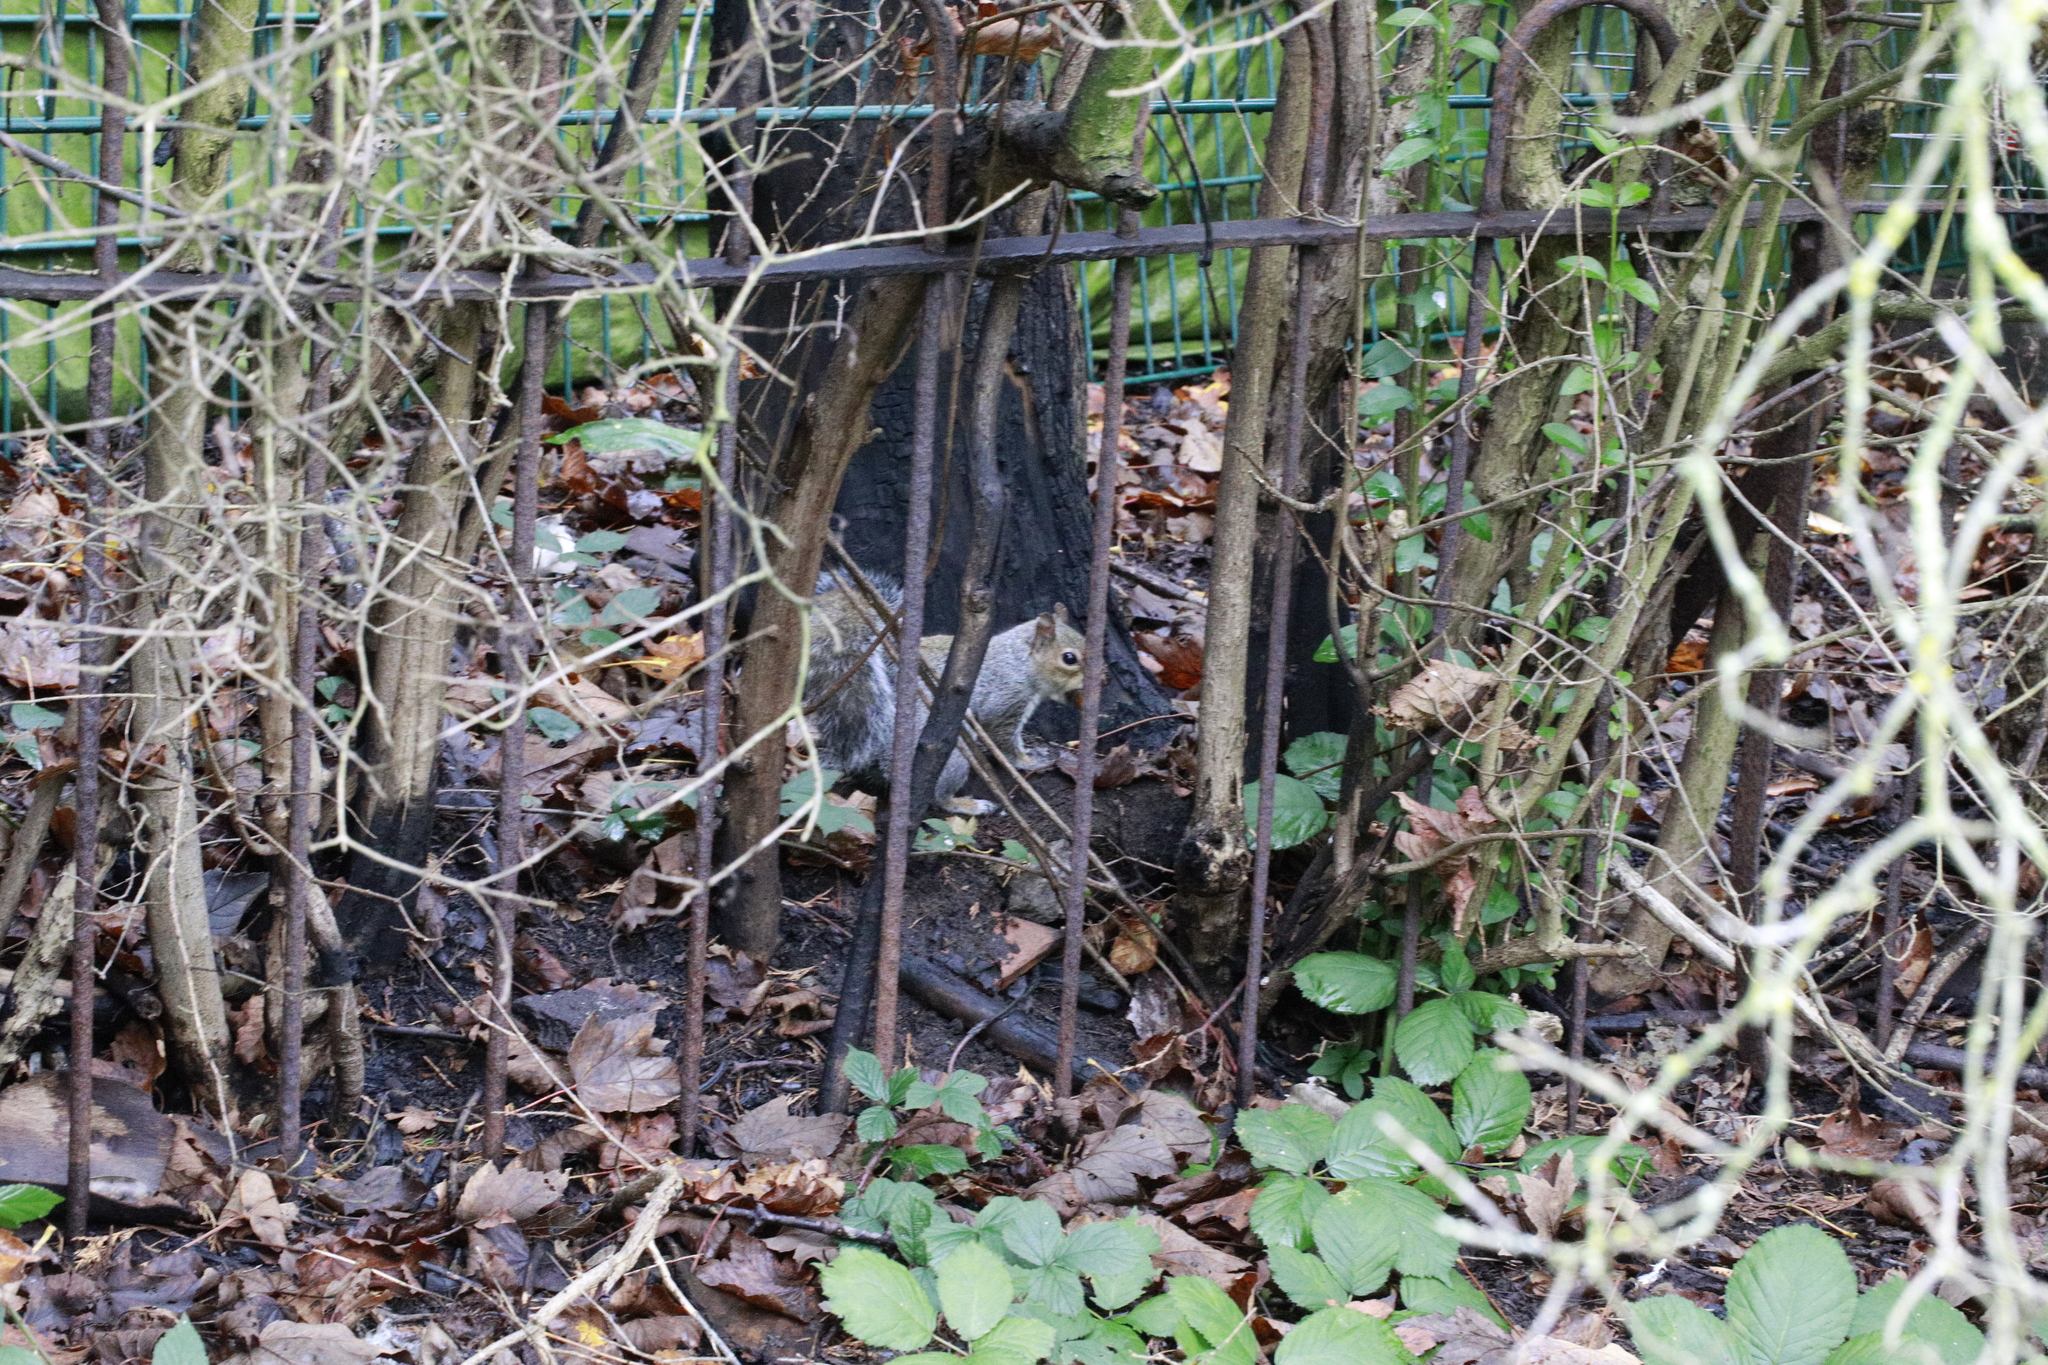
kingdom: Animalia
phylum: Chordata
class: Mammalia
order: Rodentia
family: Sciuridae
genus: Sciurus
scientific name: Sciurus carolinensis
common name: Eastern gray squirrel
